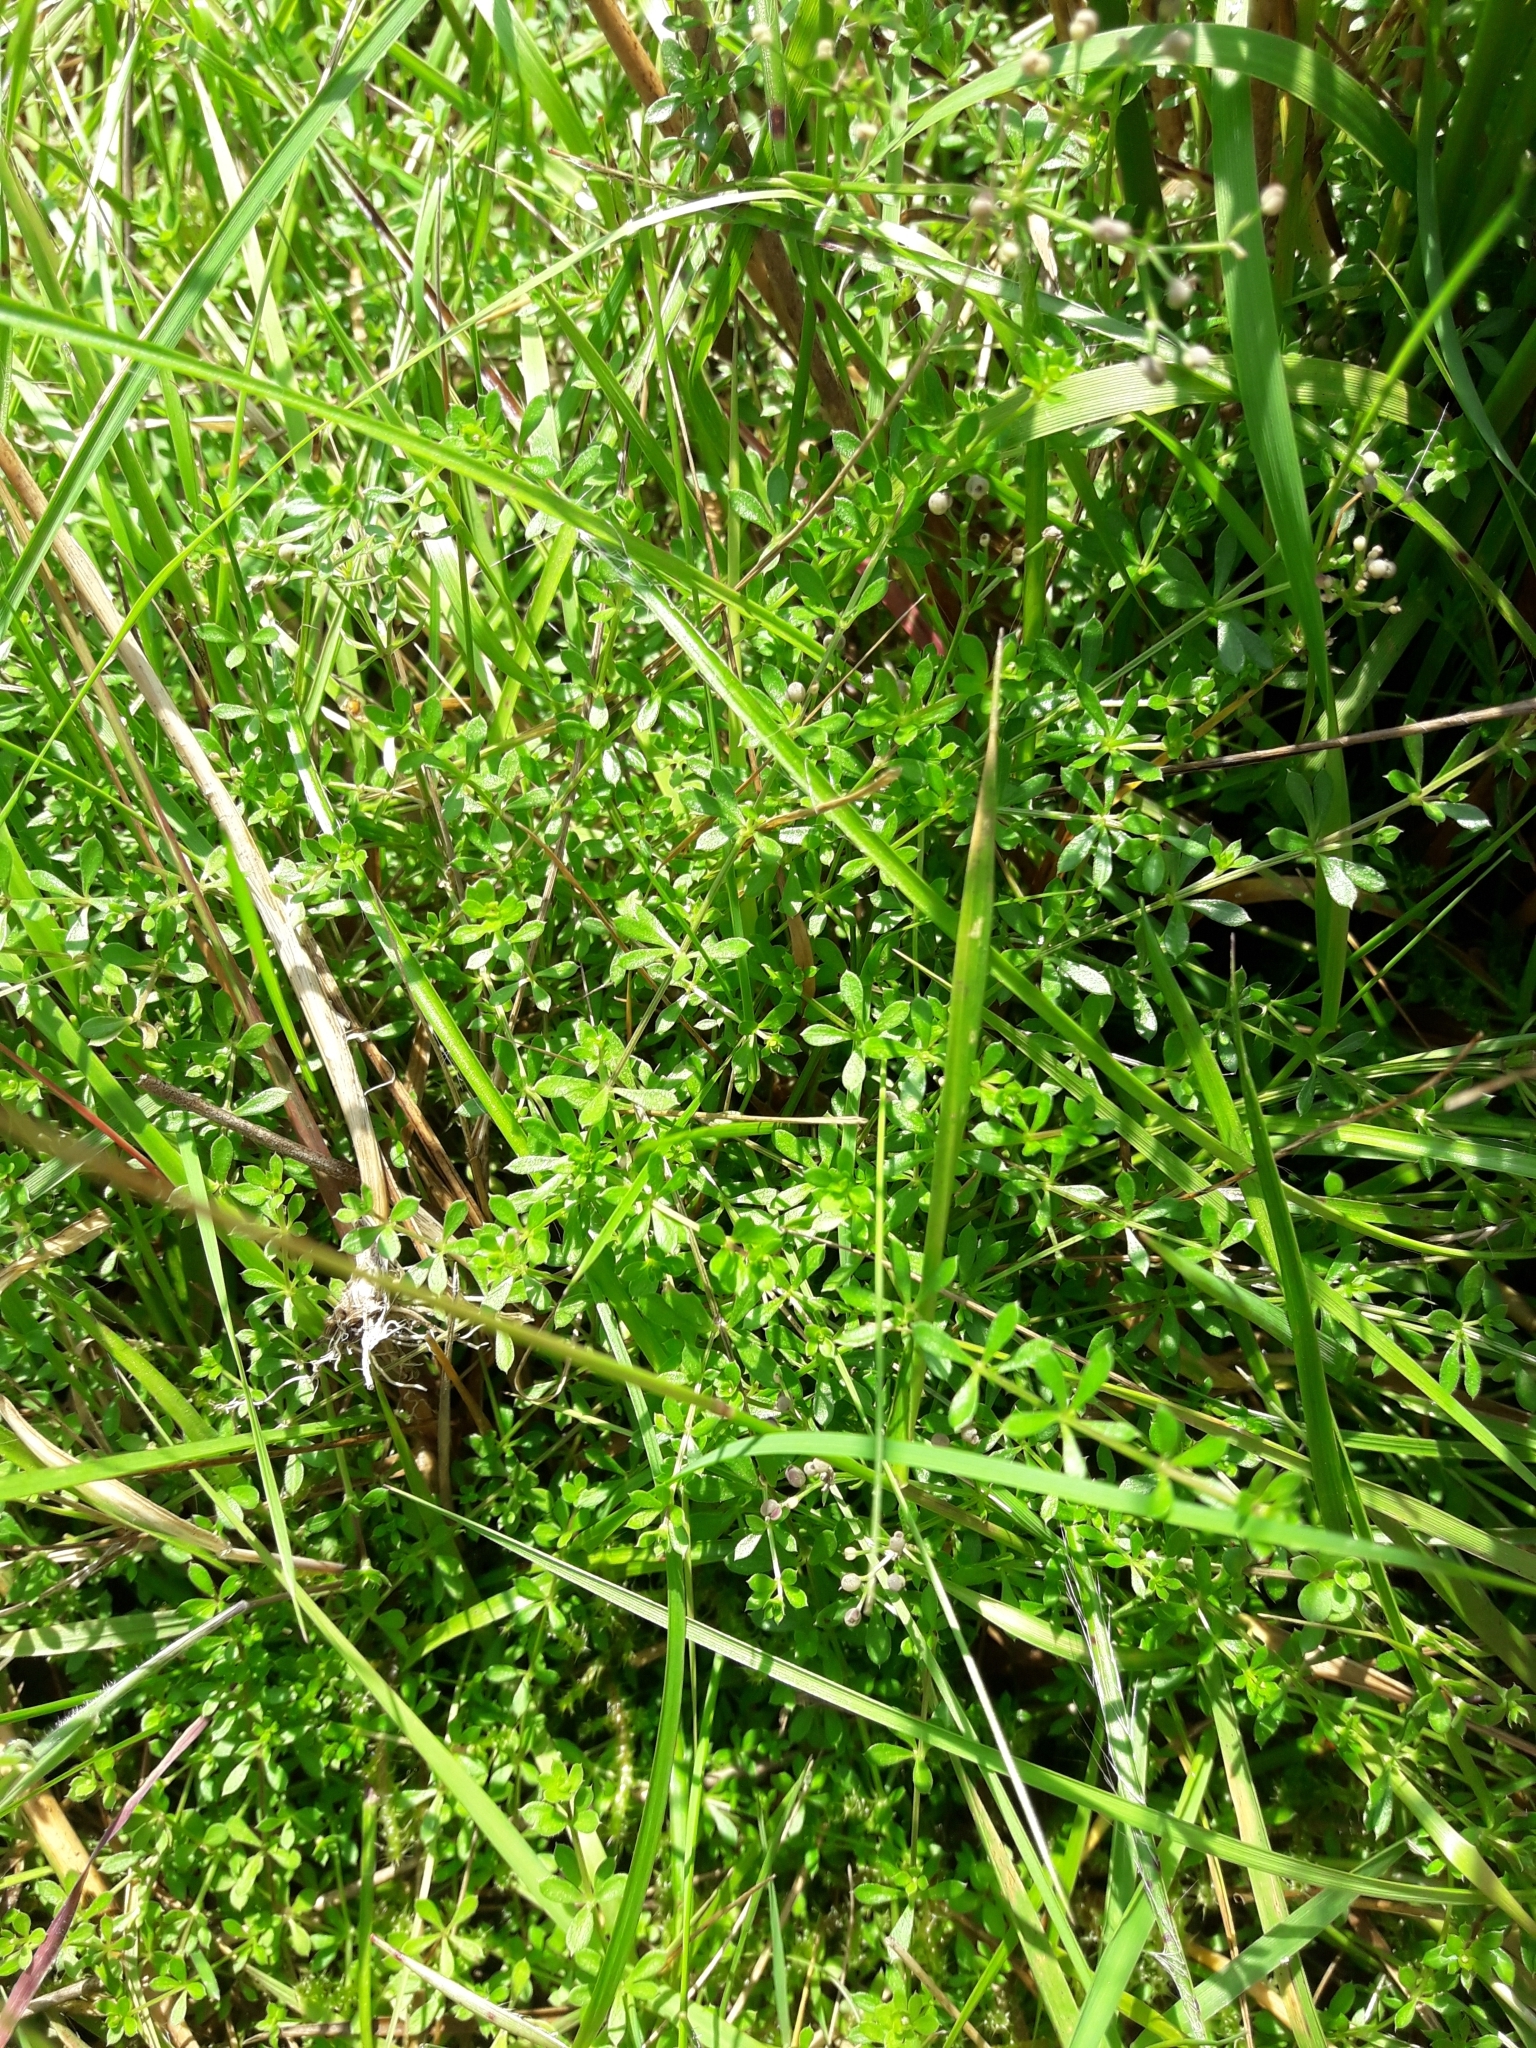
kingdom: Plantae
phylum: Tracheophyta
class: Magnoliopsida
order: Gentianales
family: Rubiaceae
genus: Galium
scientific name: Galium saxatile
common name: Heath bedstraw
